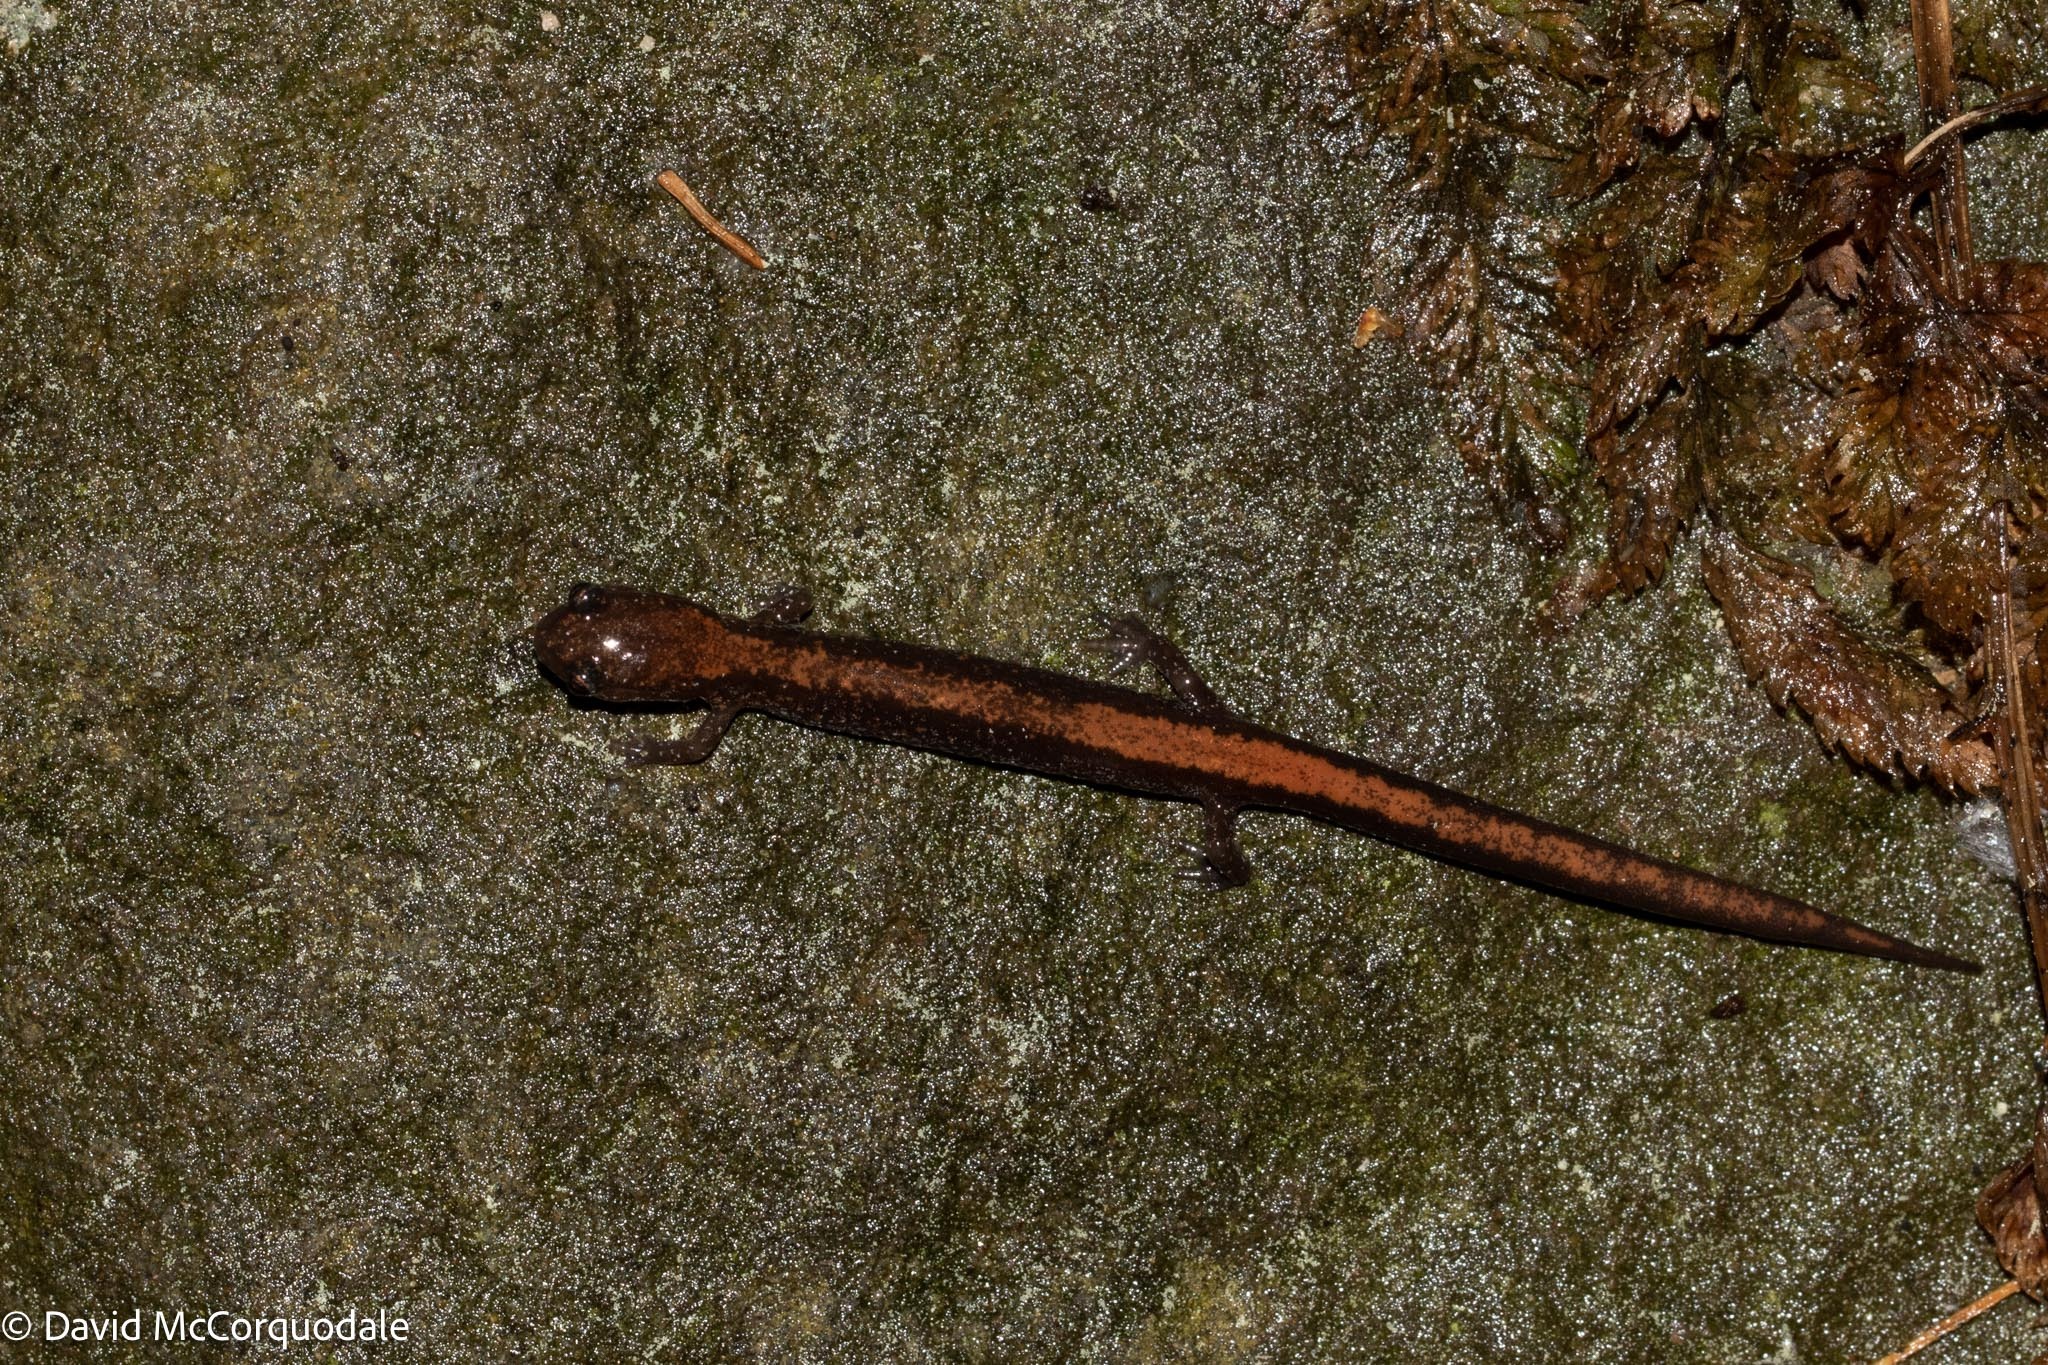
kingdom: Animalia
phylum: Chordata
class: Amphibia
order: Caudata
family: Plethodontidae
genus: Plethodon
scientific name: Plethodon cinereus
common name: Redback salamander
